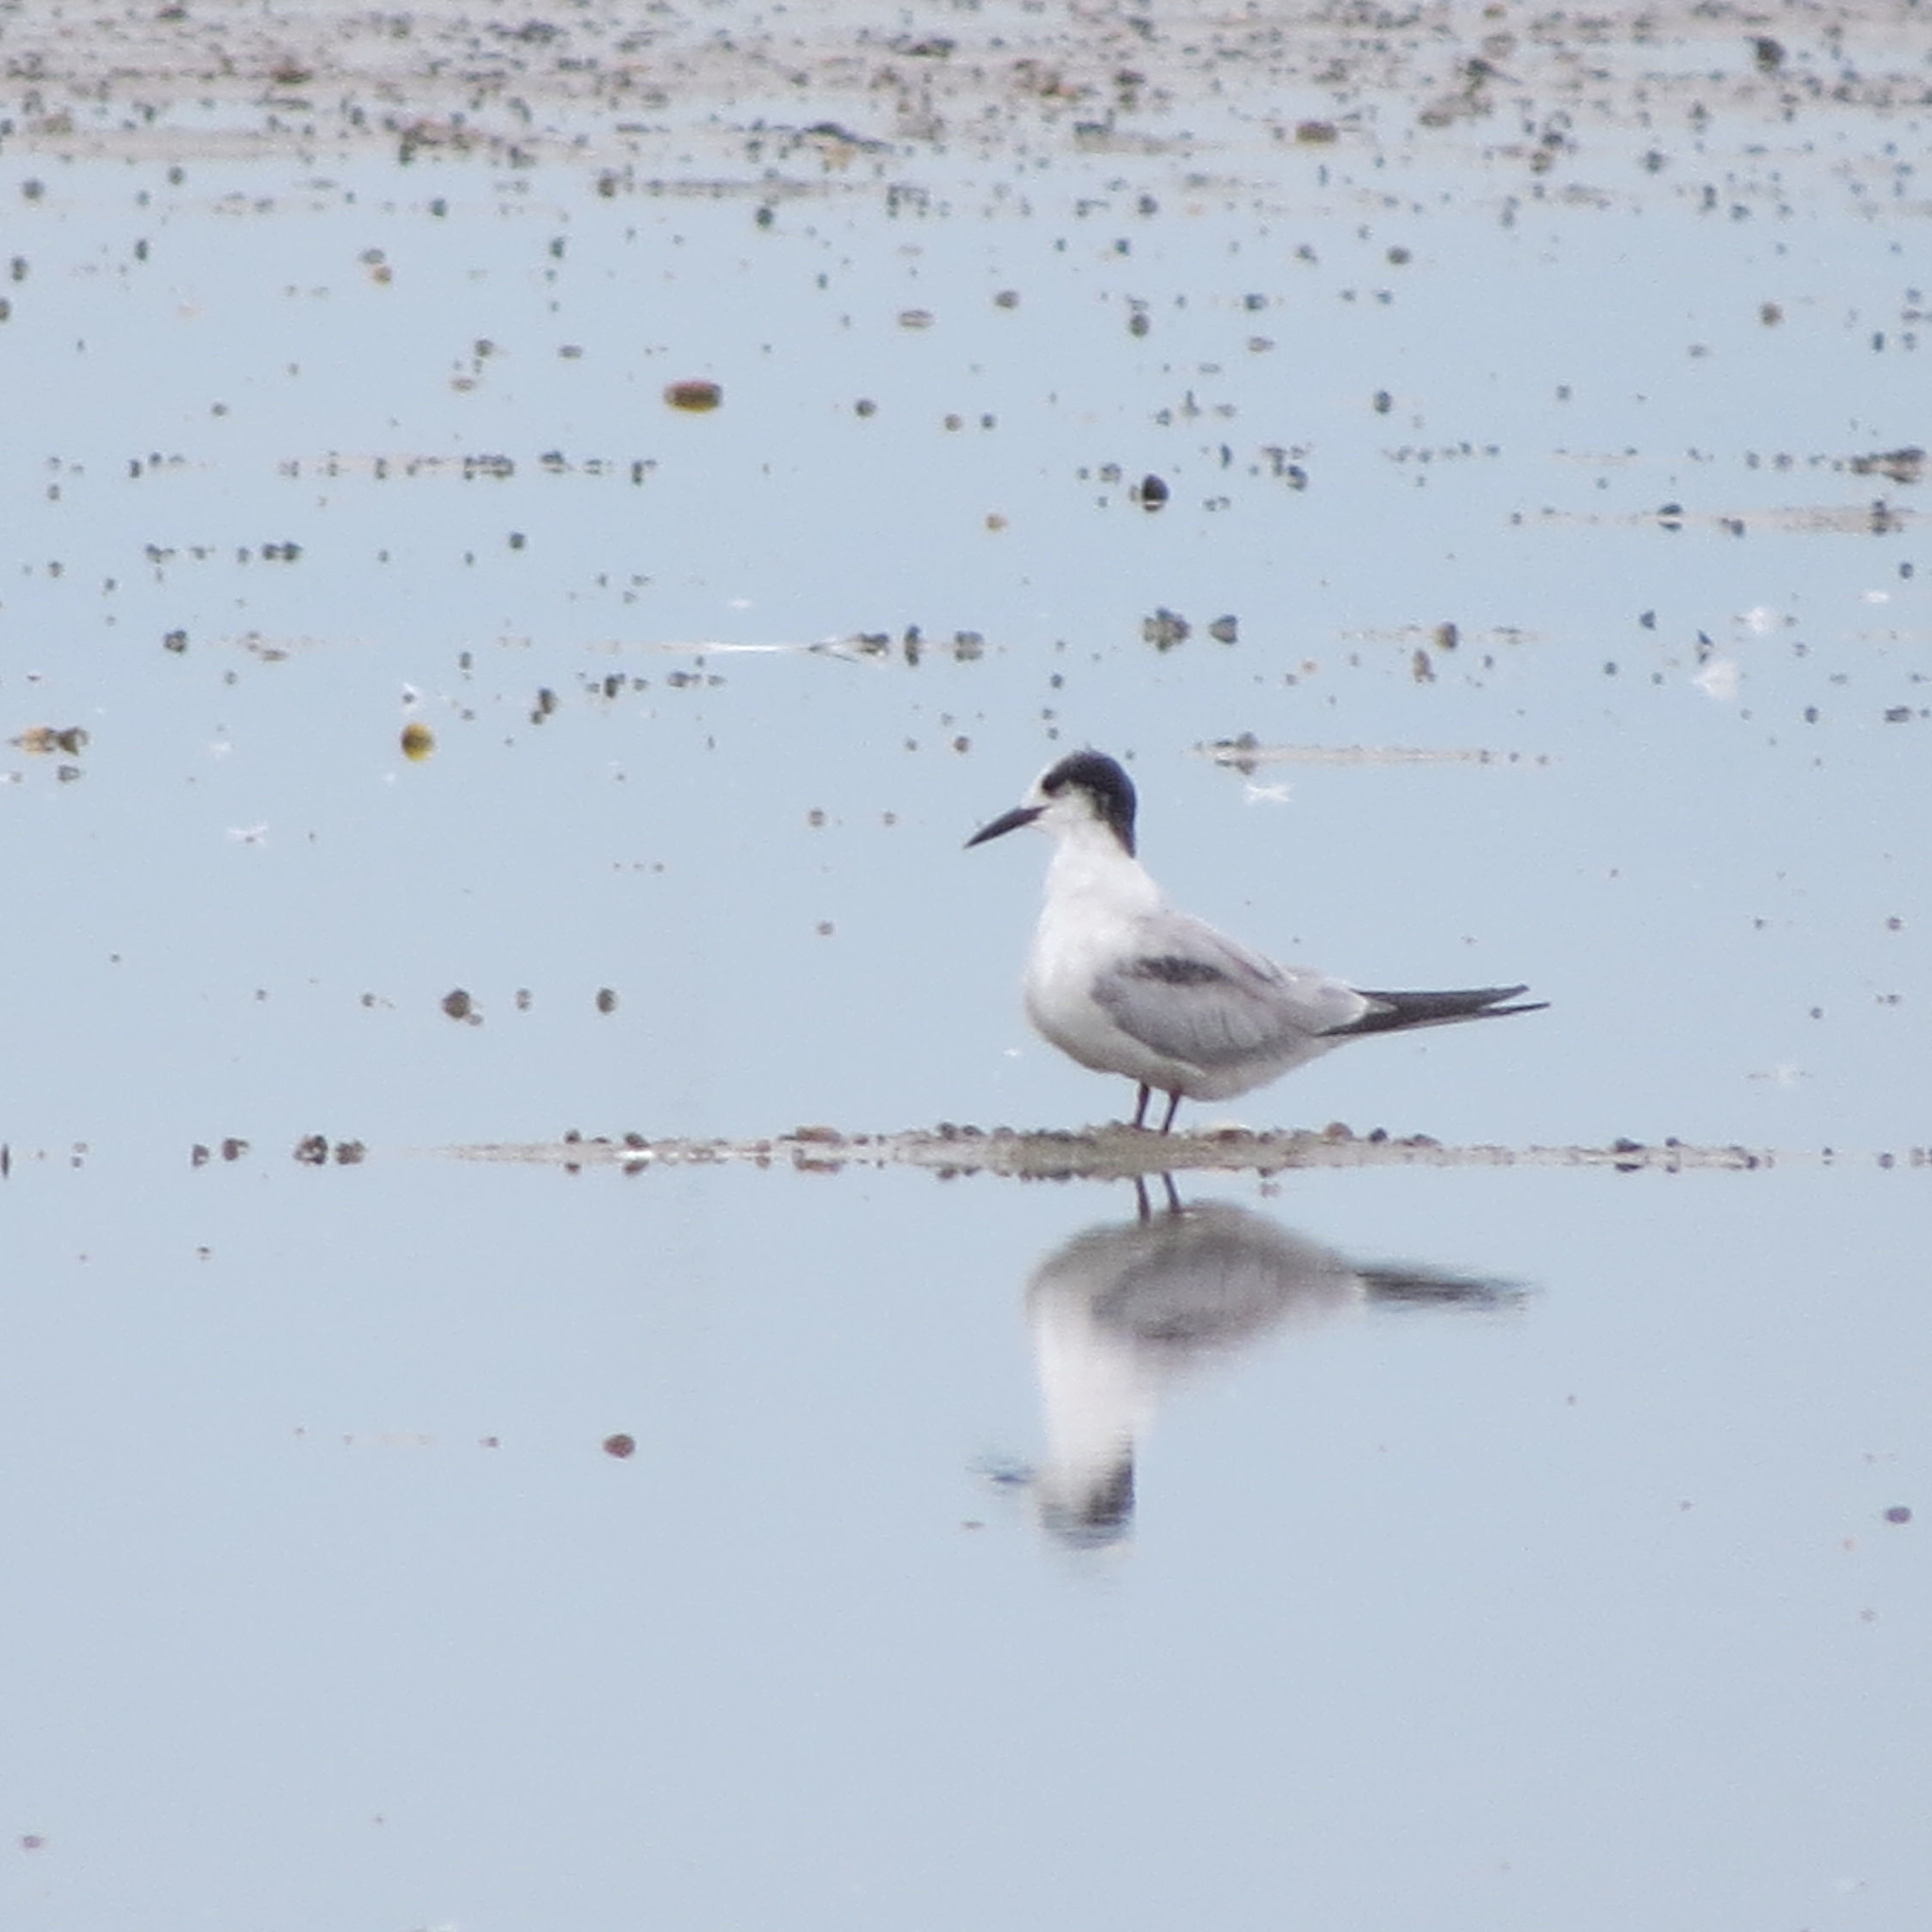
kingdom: Animalia
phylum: Chordata
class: Aves
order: Charadriiformes
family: Laridae
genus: Chlidonias
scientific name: Chlidonias hybrida
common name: Whiskered tern
